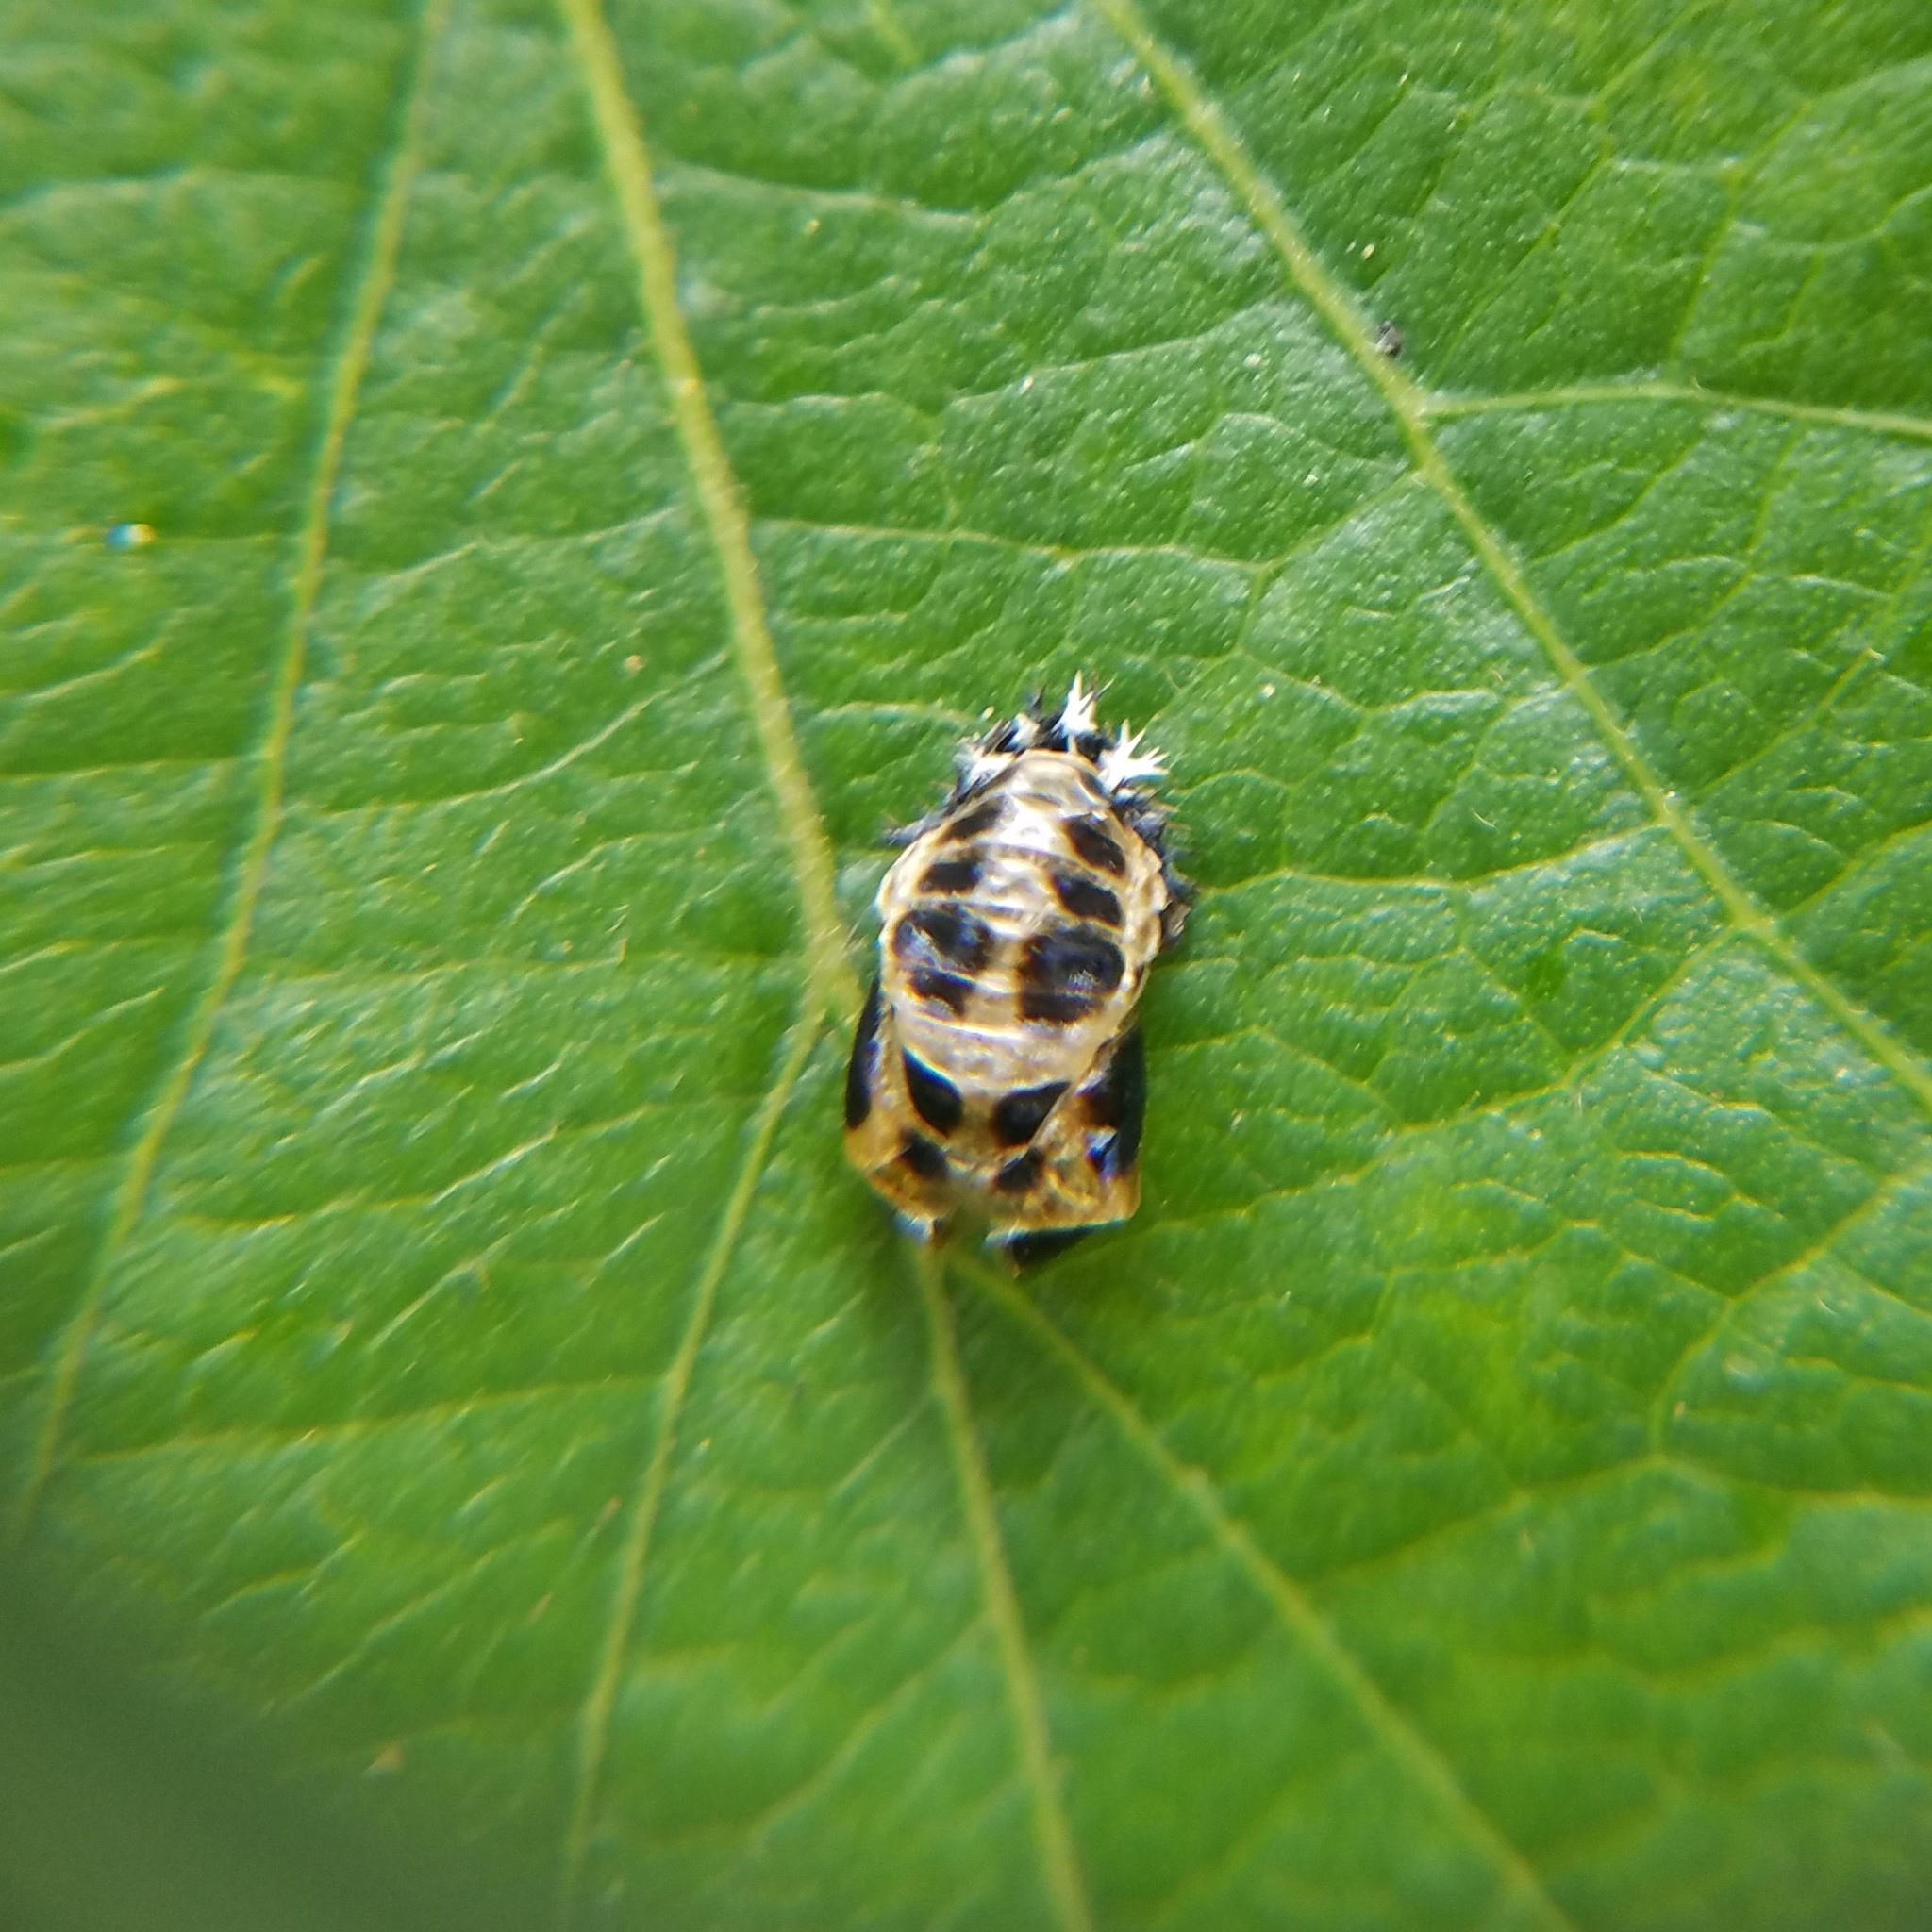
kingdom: Animalia
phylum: Arthropoda
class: Insecta
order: Coleoptera
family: Coccinellidae
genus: Harmonia
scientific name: Harmonia axyridis
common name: Harlequin ladybird
